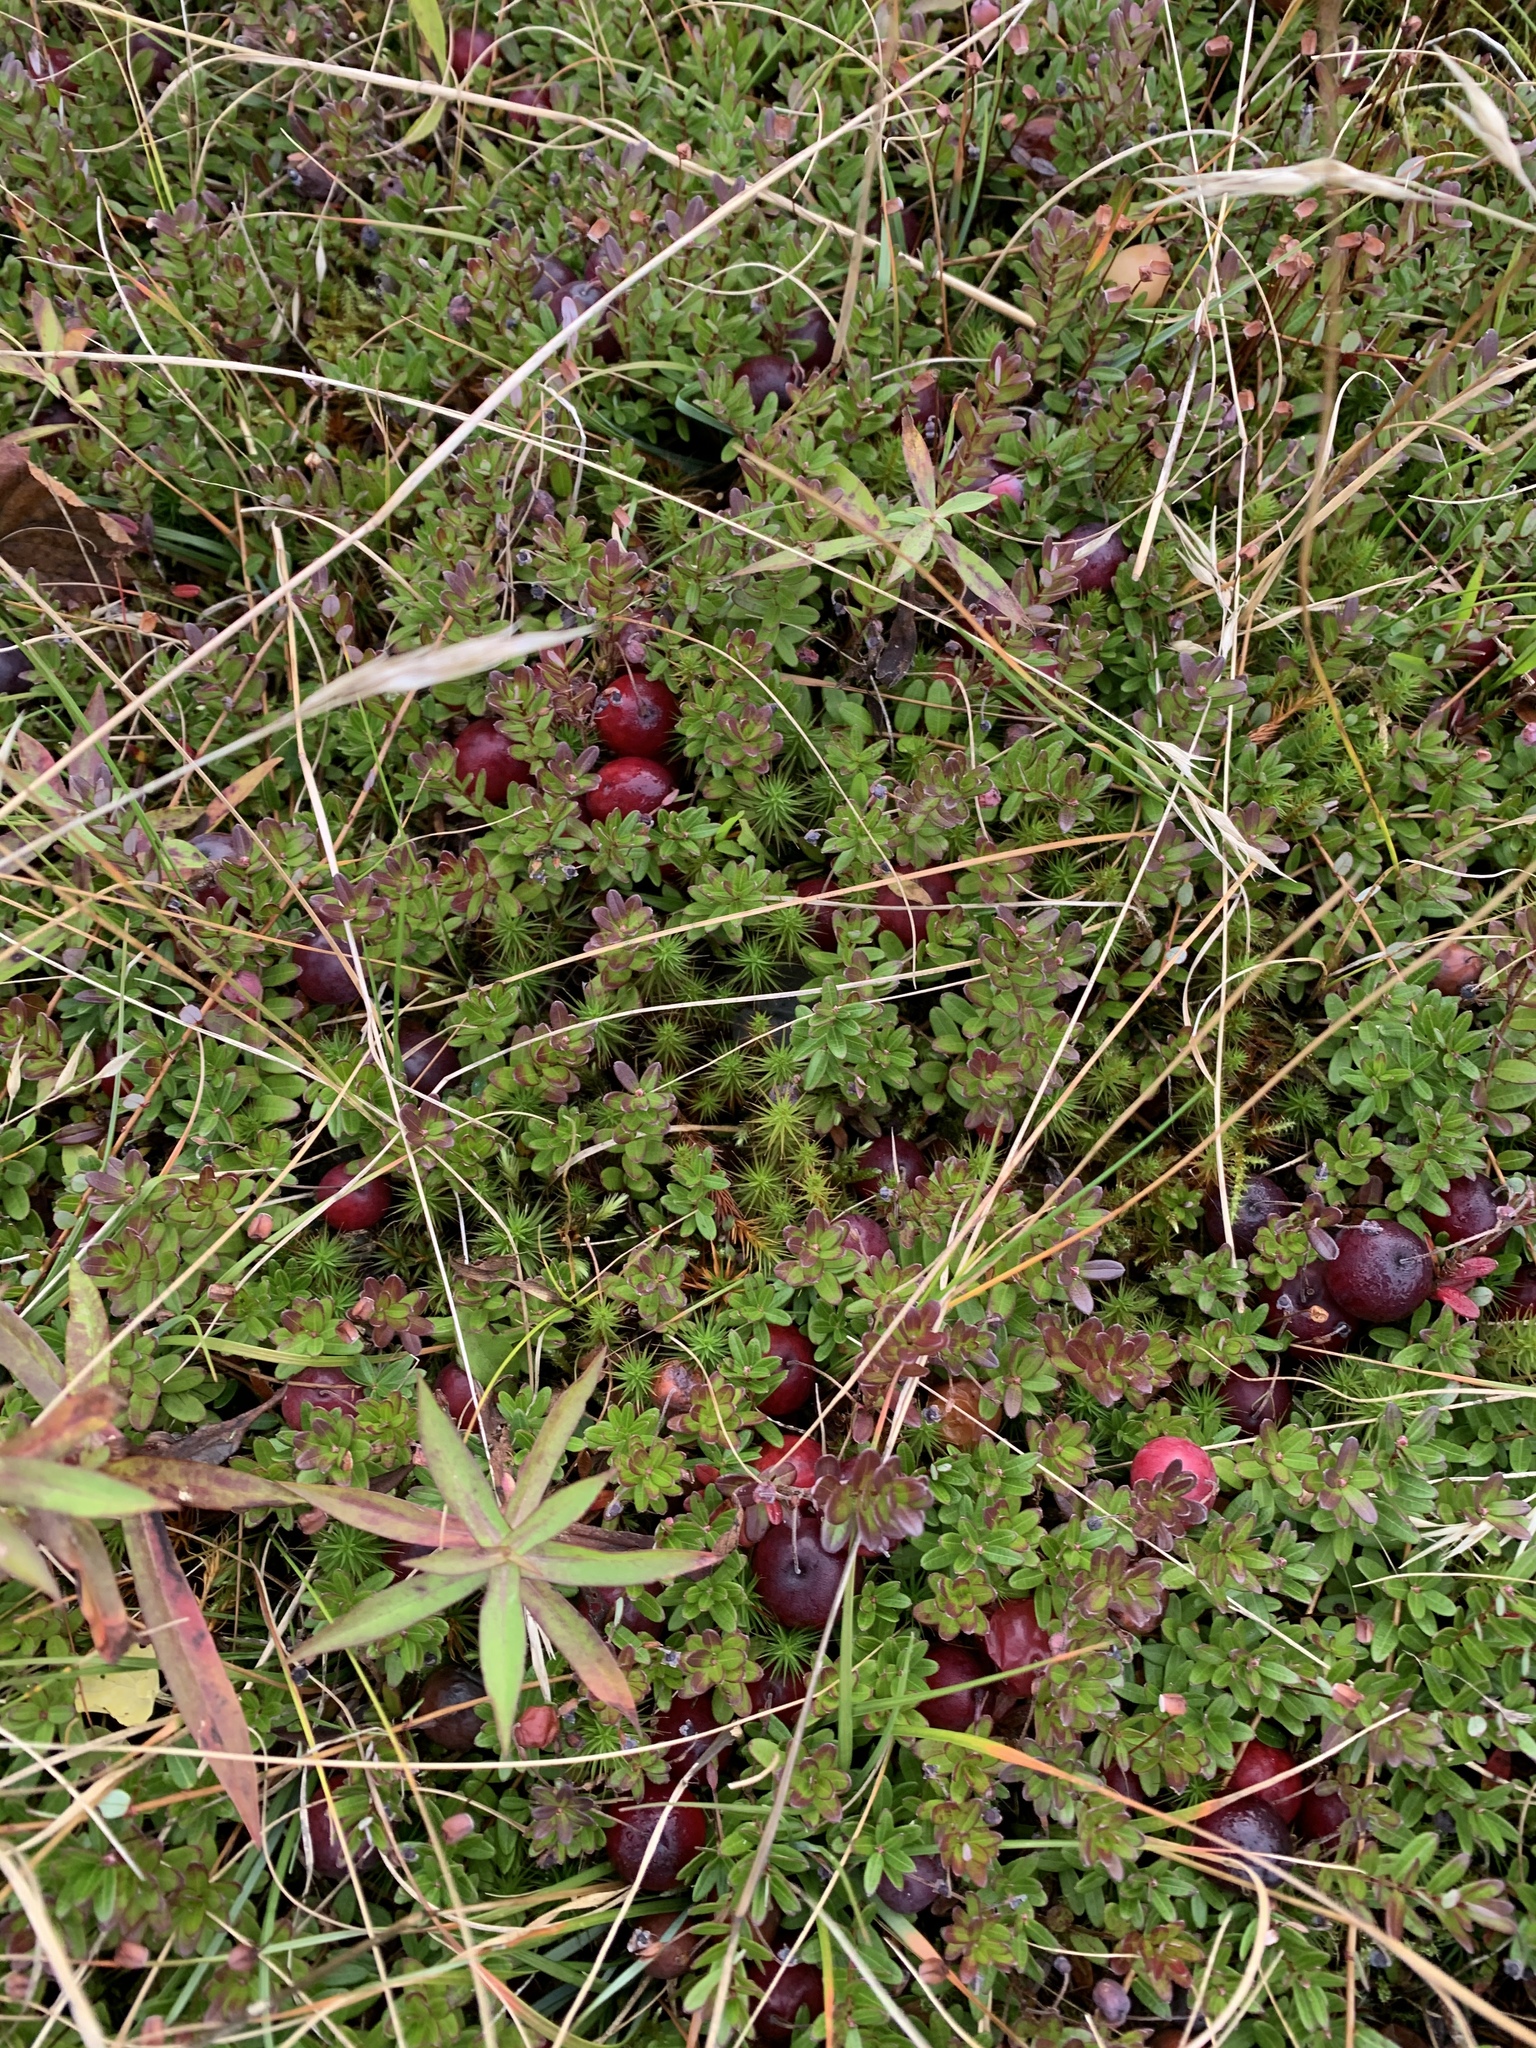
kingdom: Plantae
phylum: Tracheophyta
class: Magnoliopsida
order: Ericales
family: Ericaceae
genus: Vaccinium
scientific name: Vaccinium macrocarpon
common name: American cranberry
